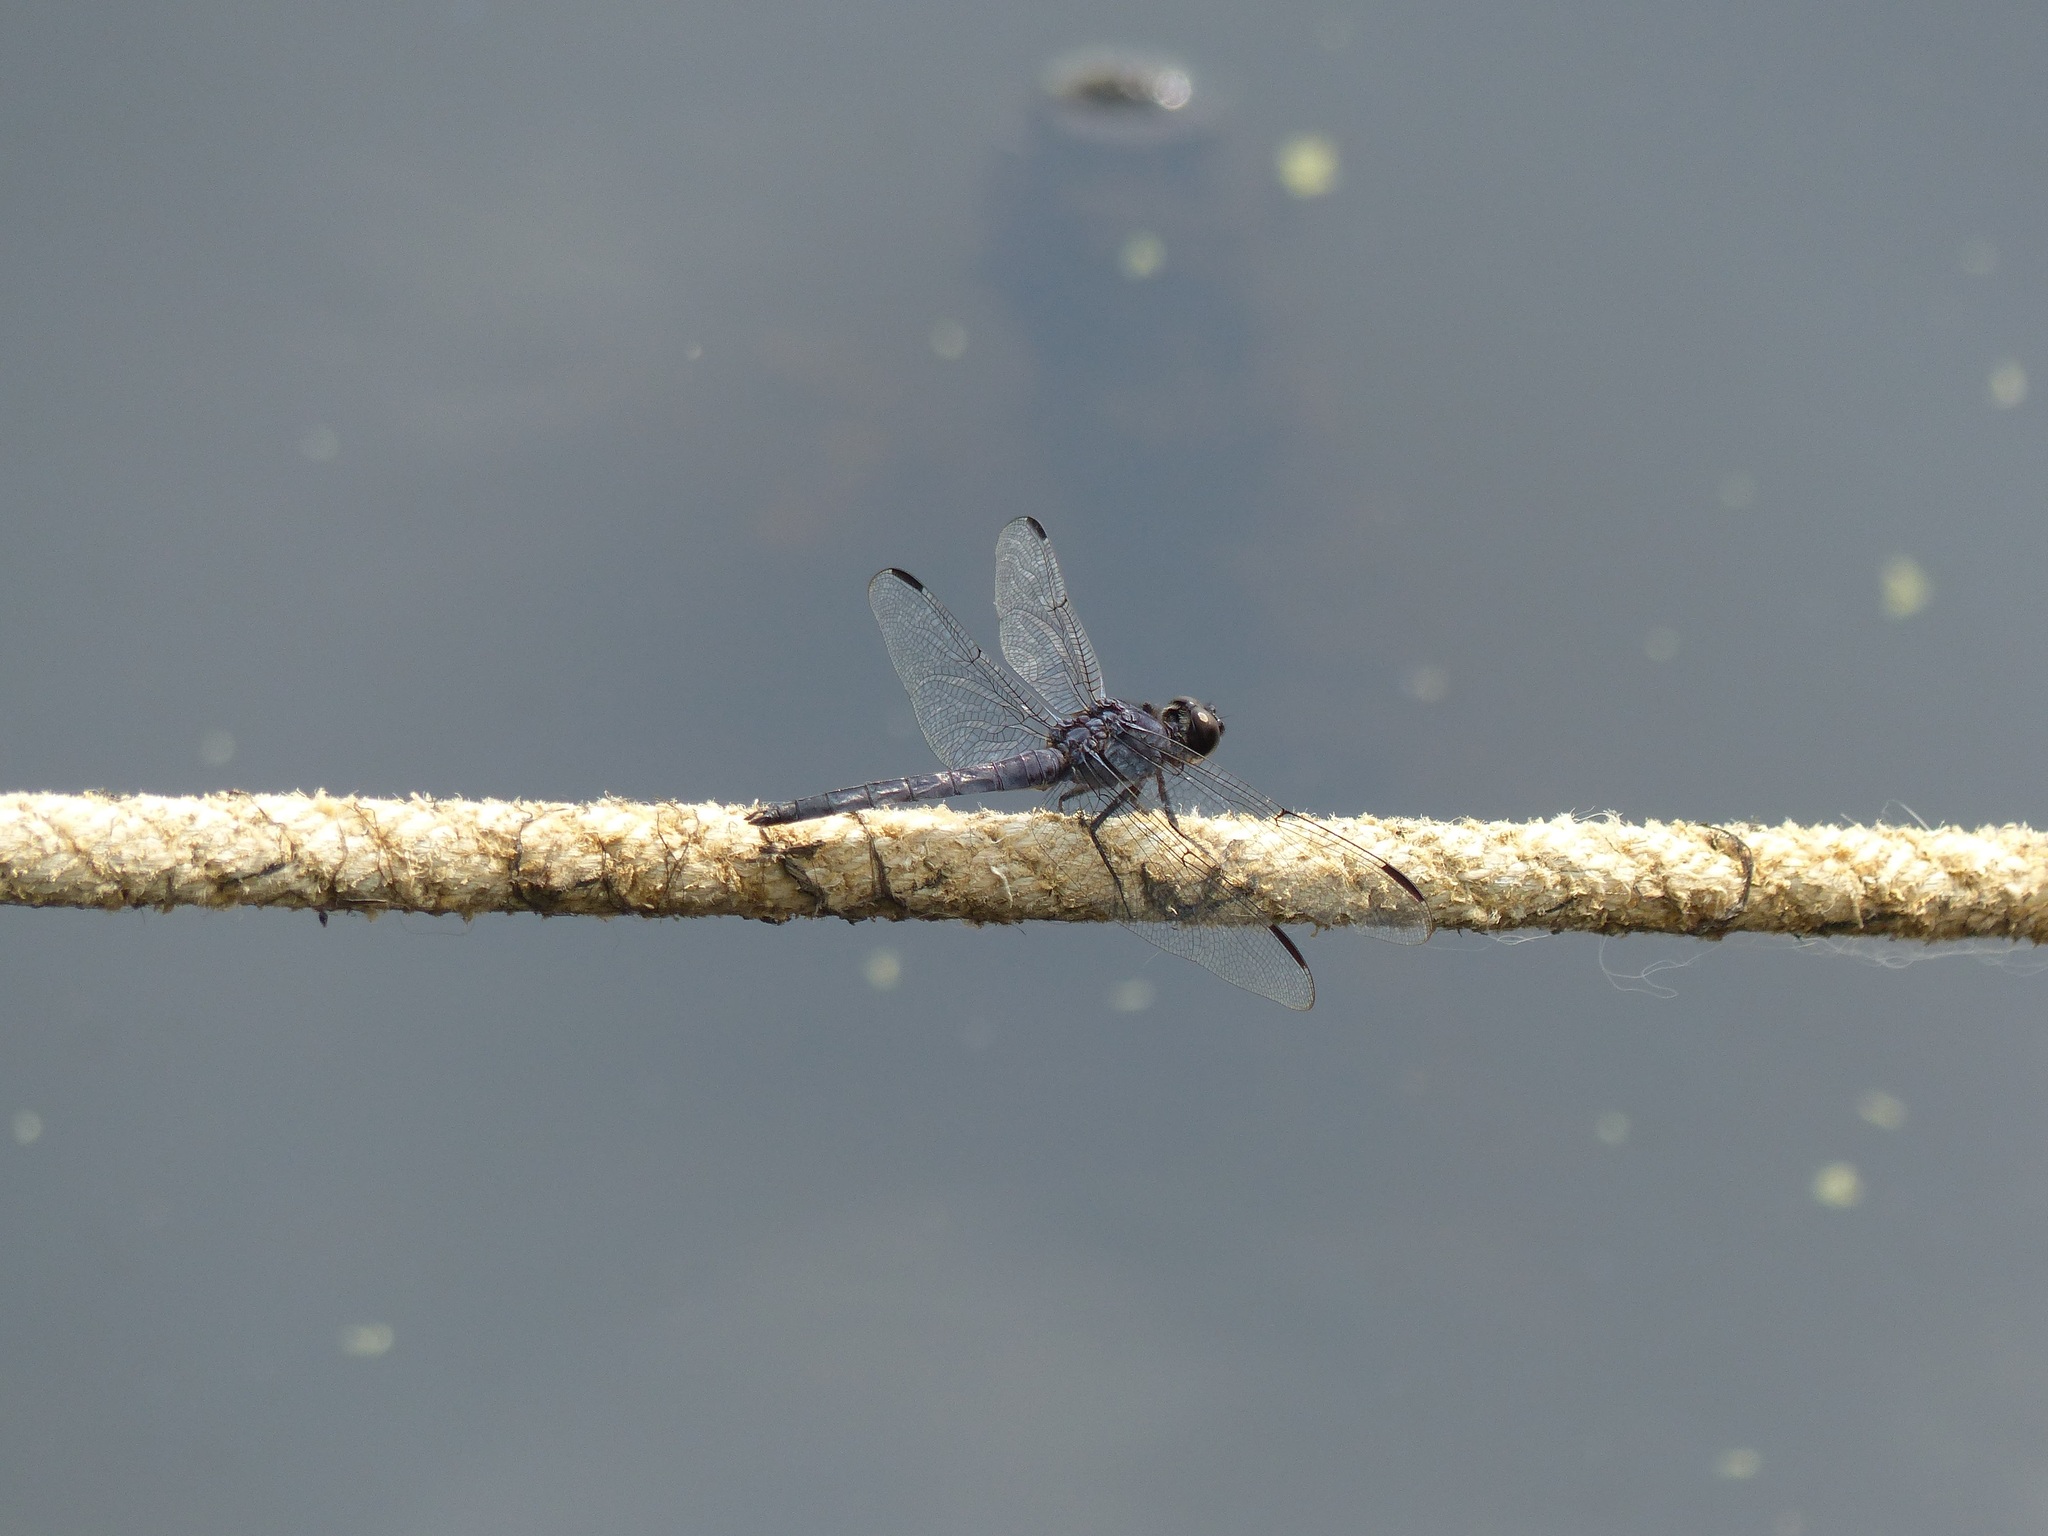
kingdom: Animalia
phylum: Arthropoda
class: Insecta
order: Odonata
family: Libellulidae
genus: Libellula
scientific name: Libellula incesta
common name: Slaty skimmer
